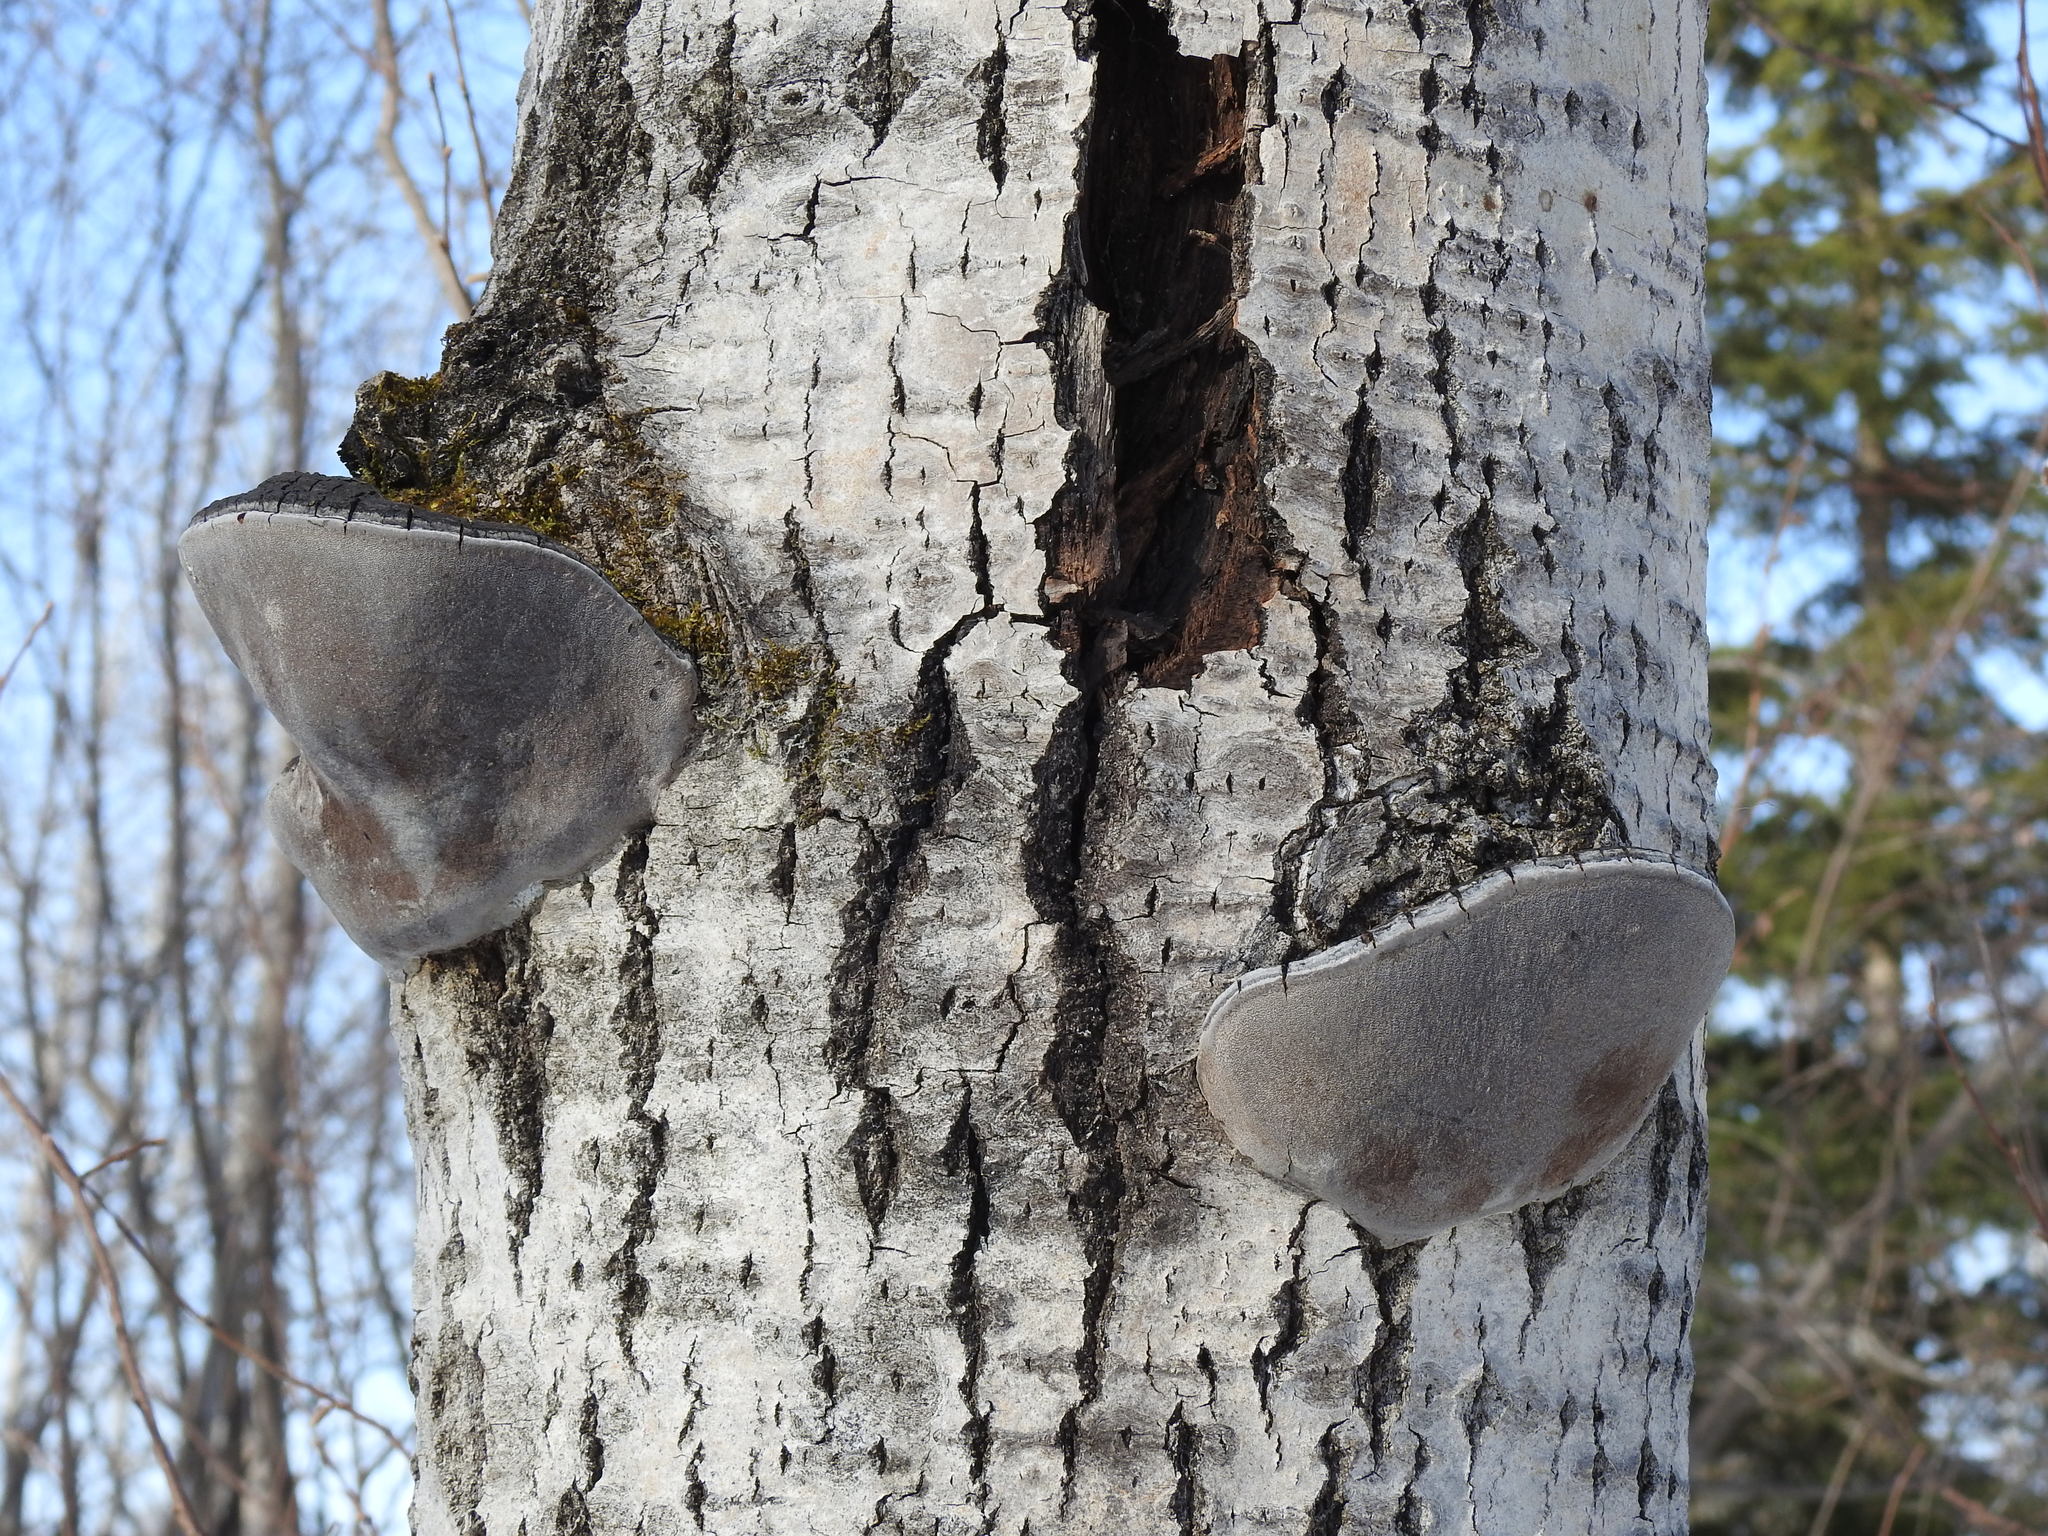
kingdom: Fungi
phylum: Basidiomycota
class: Agaricomycetes
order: Hymenochaetales
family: Hymenochaetaceae
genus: Phellinus
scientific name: Phellinus tremulae
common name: Aspen bracket
